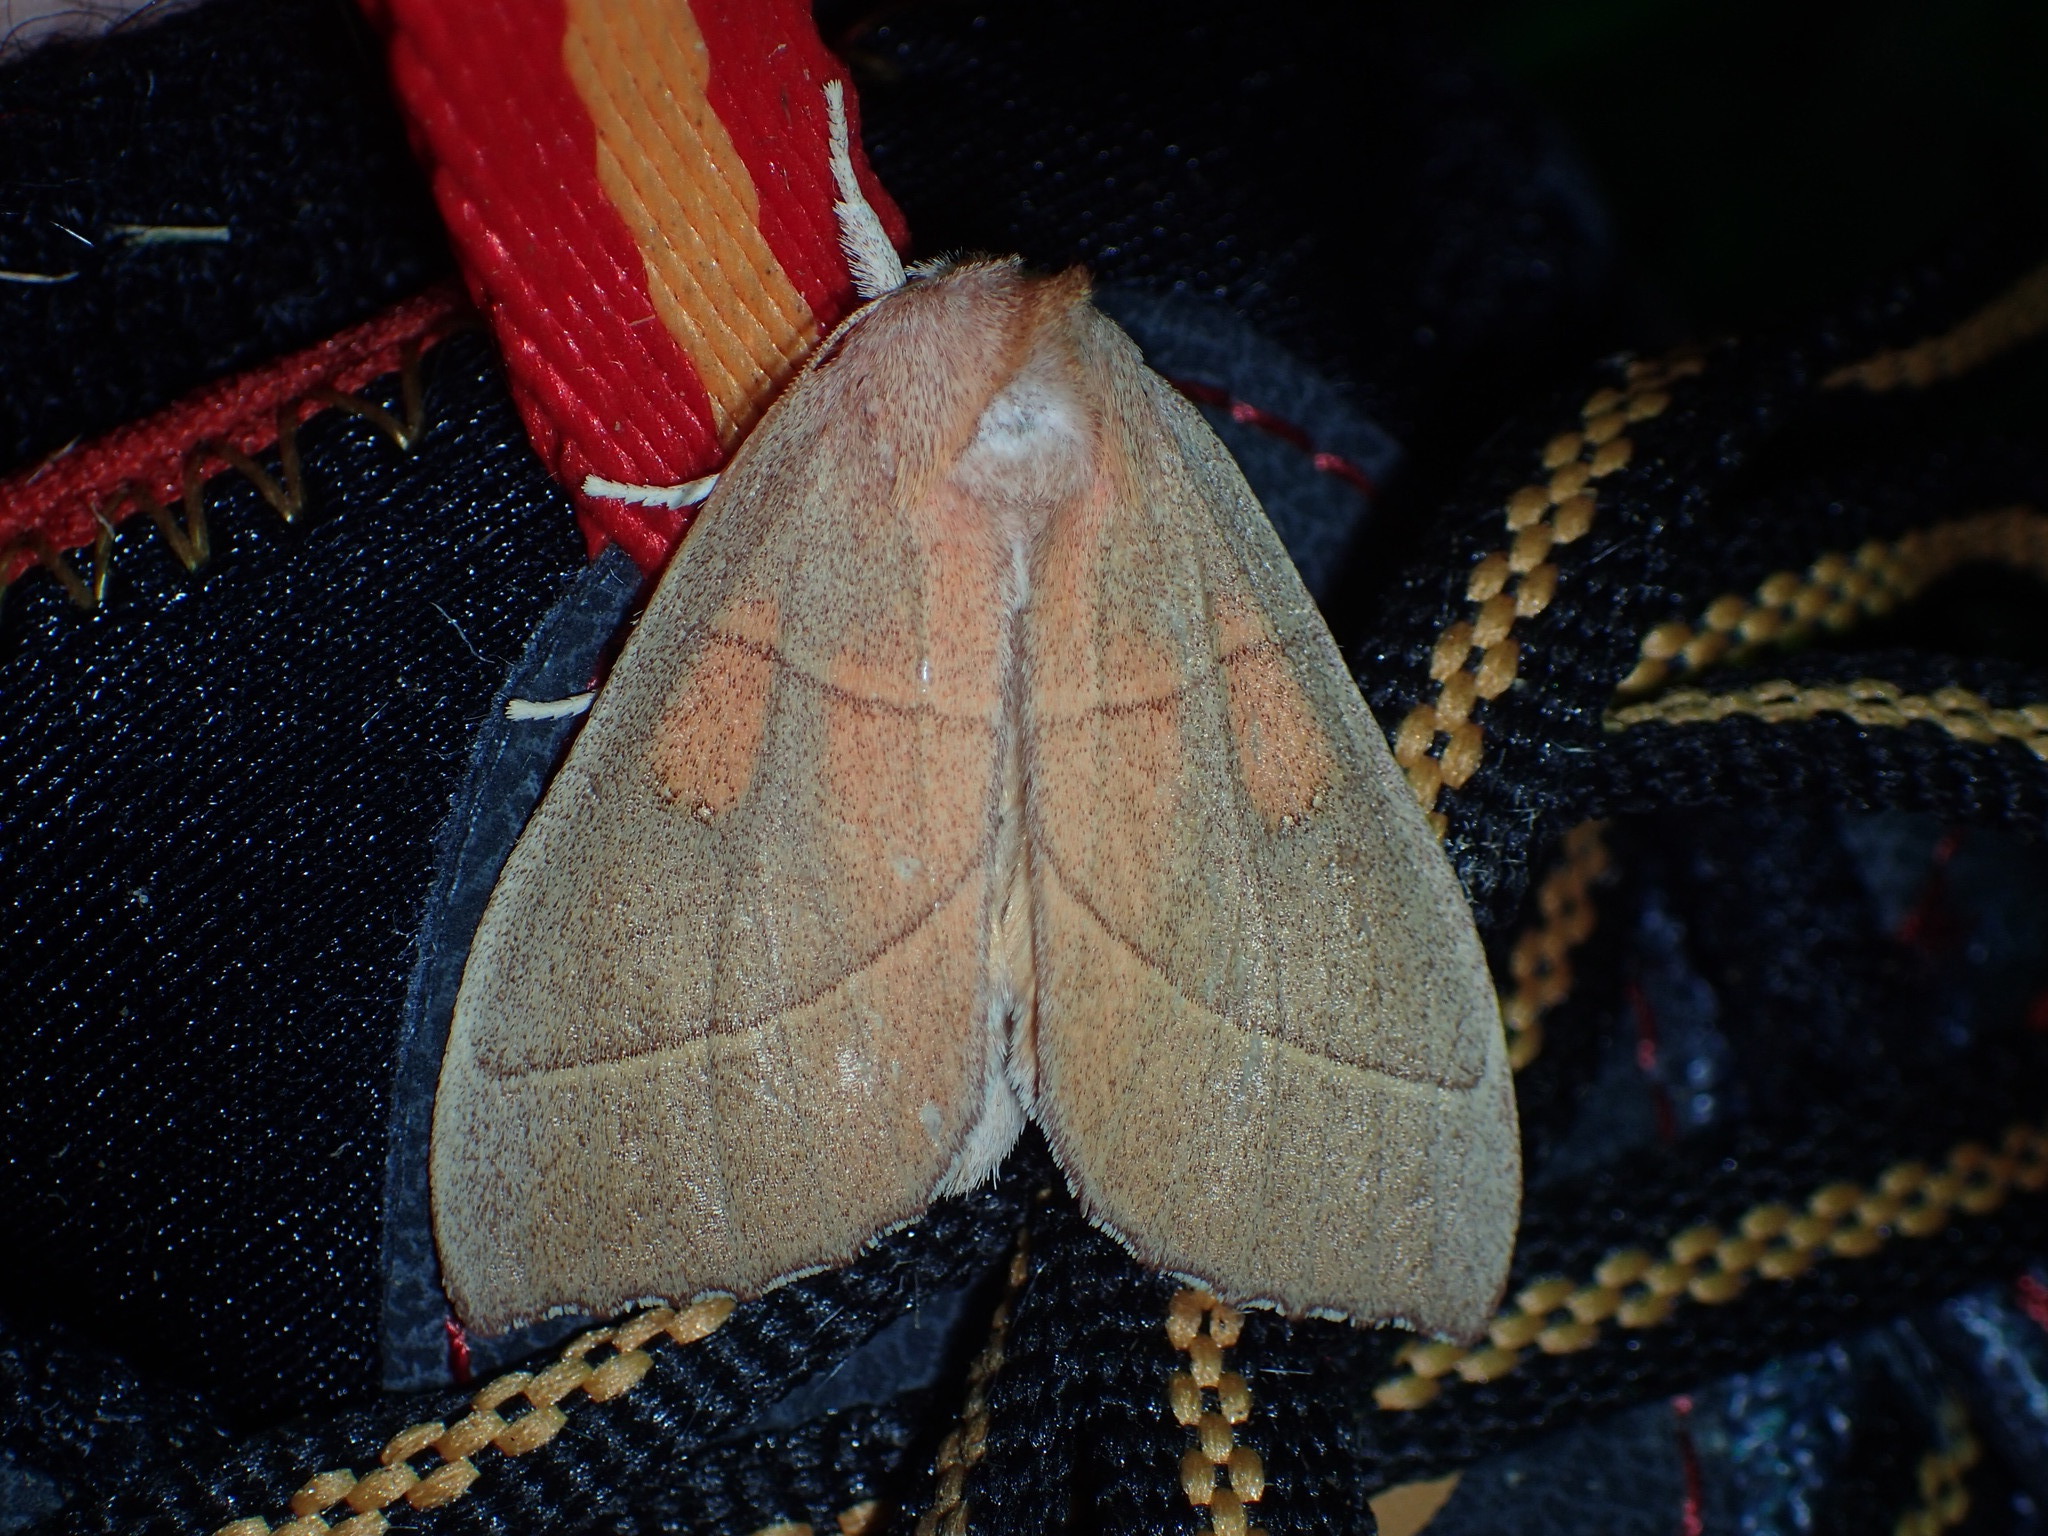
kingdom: Animalia
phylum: Arthropoda
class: Insecta
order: Lepidoptera
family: Notodontidae
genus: Nadata
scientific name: Nadata gibbosa
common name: White-dotted prominent
